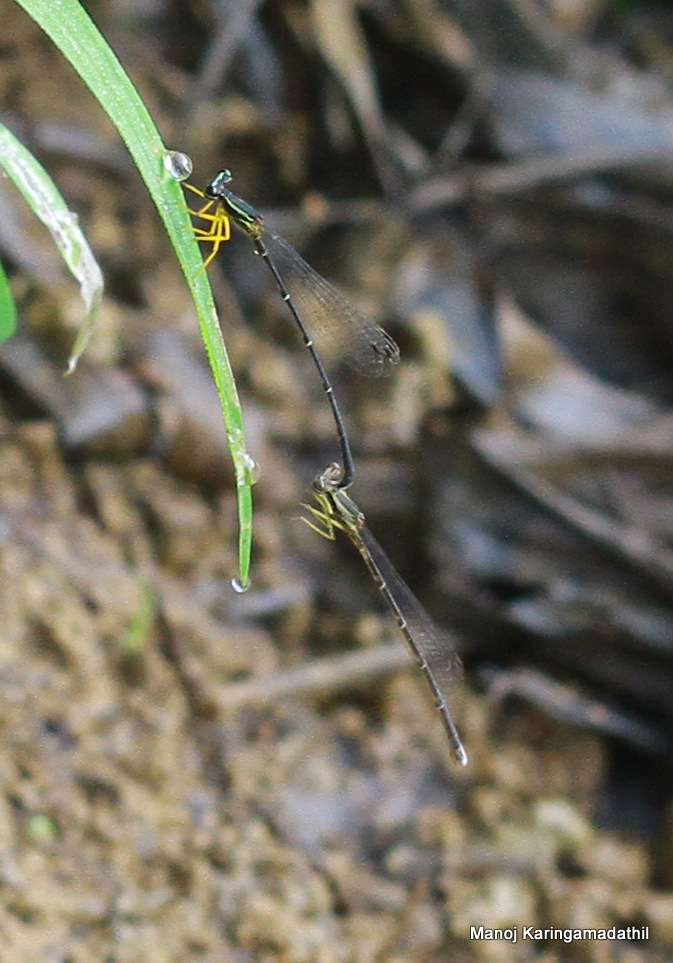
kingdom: Animalia
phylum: Arthropoda
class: Insecta
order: Odonata
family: Platycnemididae
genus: Copera
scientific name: Copera marginipes
